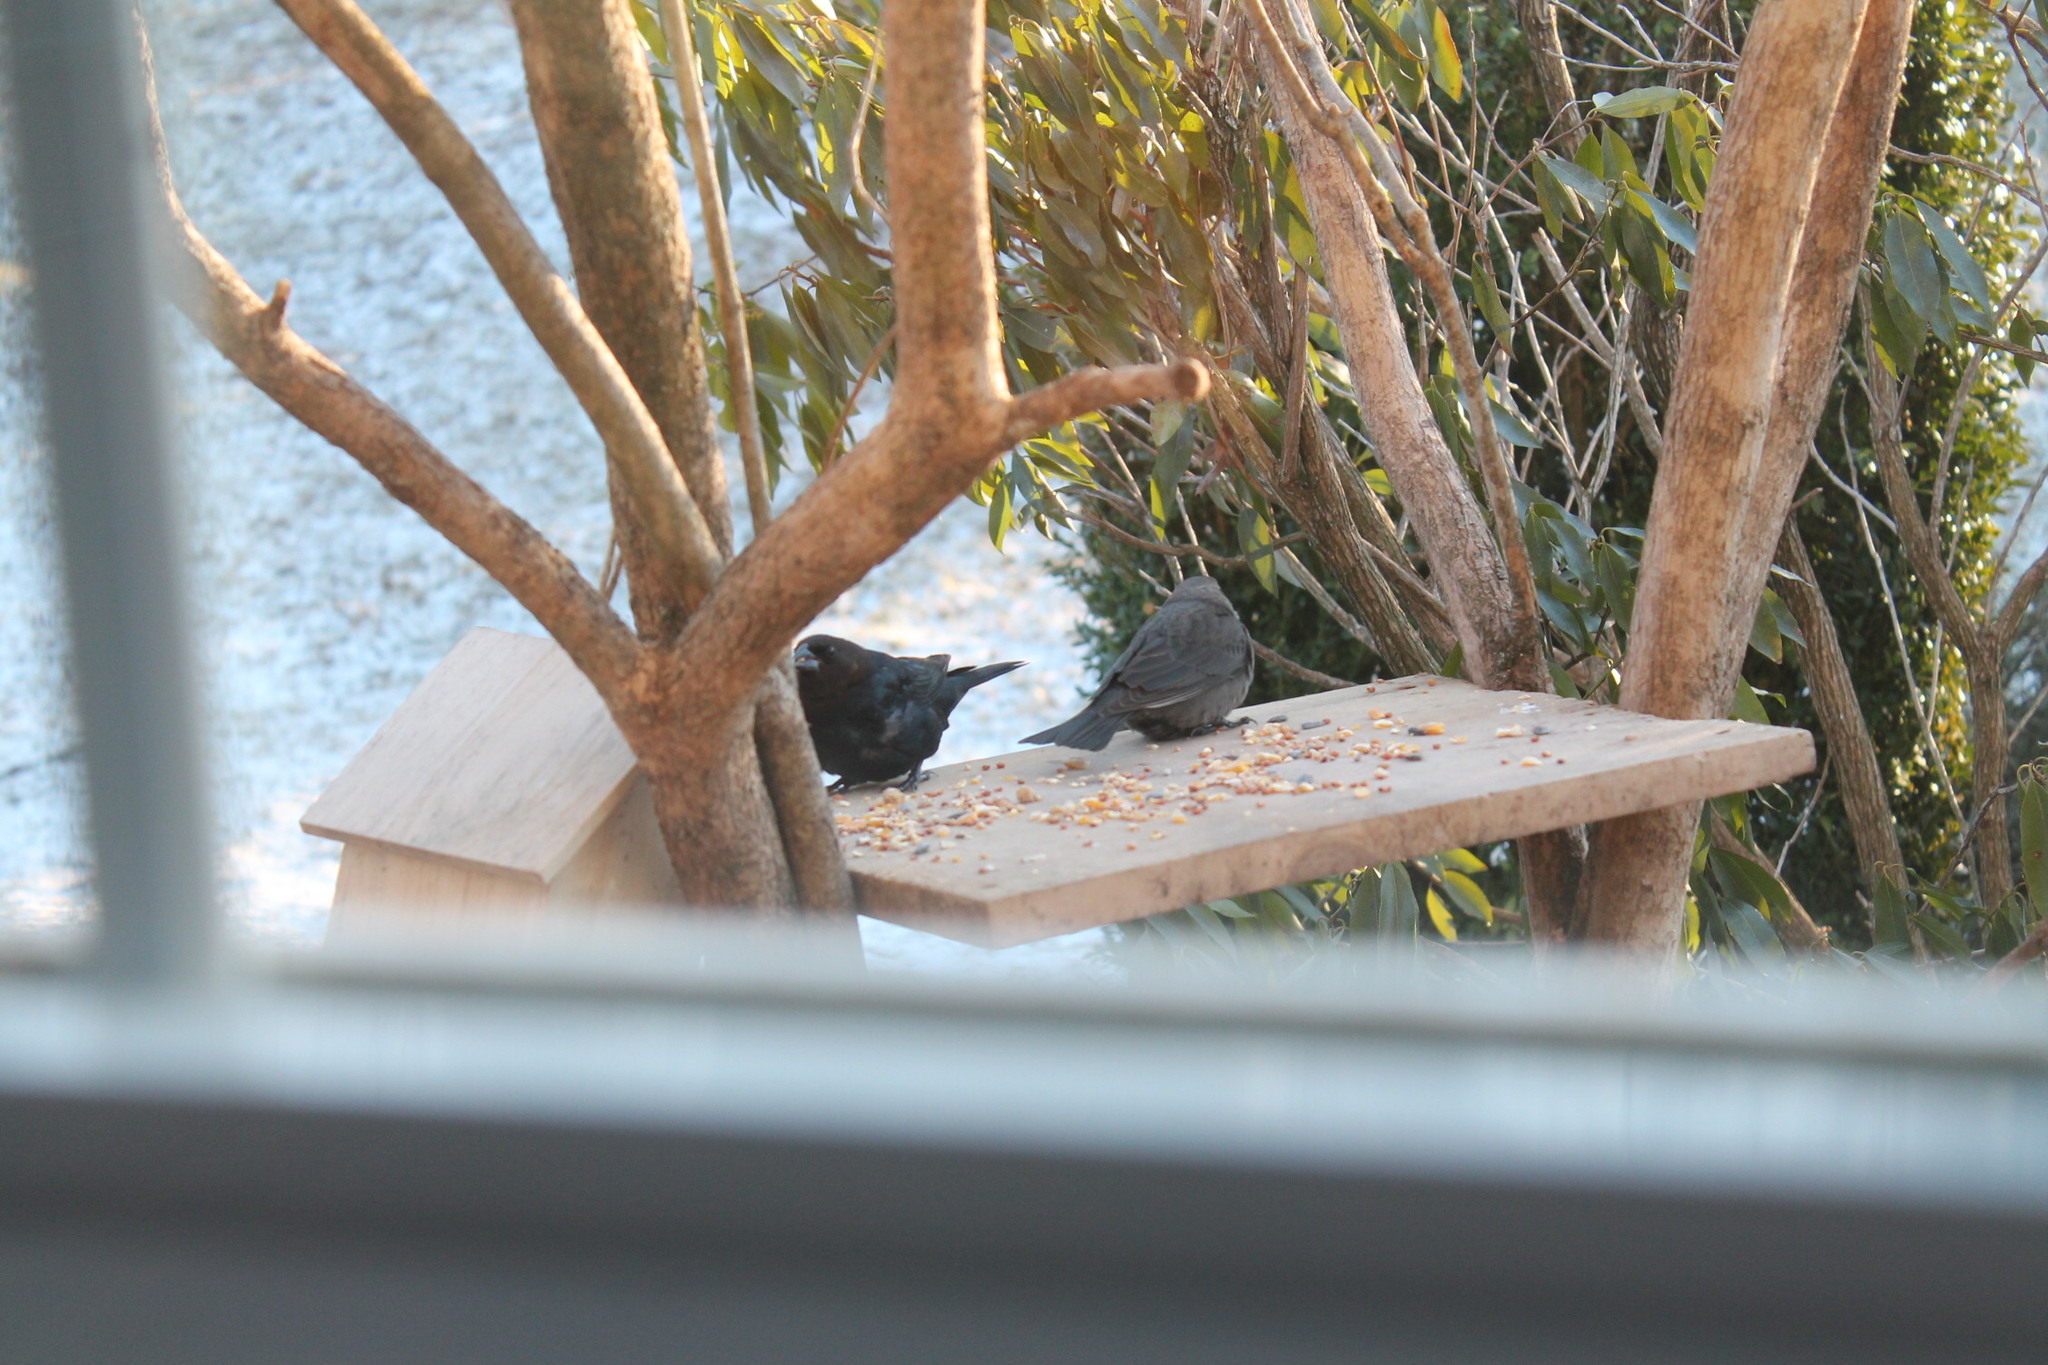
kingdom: Animalia
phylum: Chordata
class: Aves
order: Passeriformes
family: Icteridae
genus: Molothrus
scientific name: Molothrus ater
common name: Brown-headed cowbird
